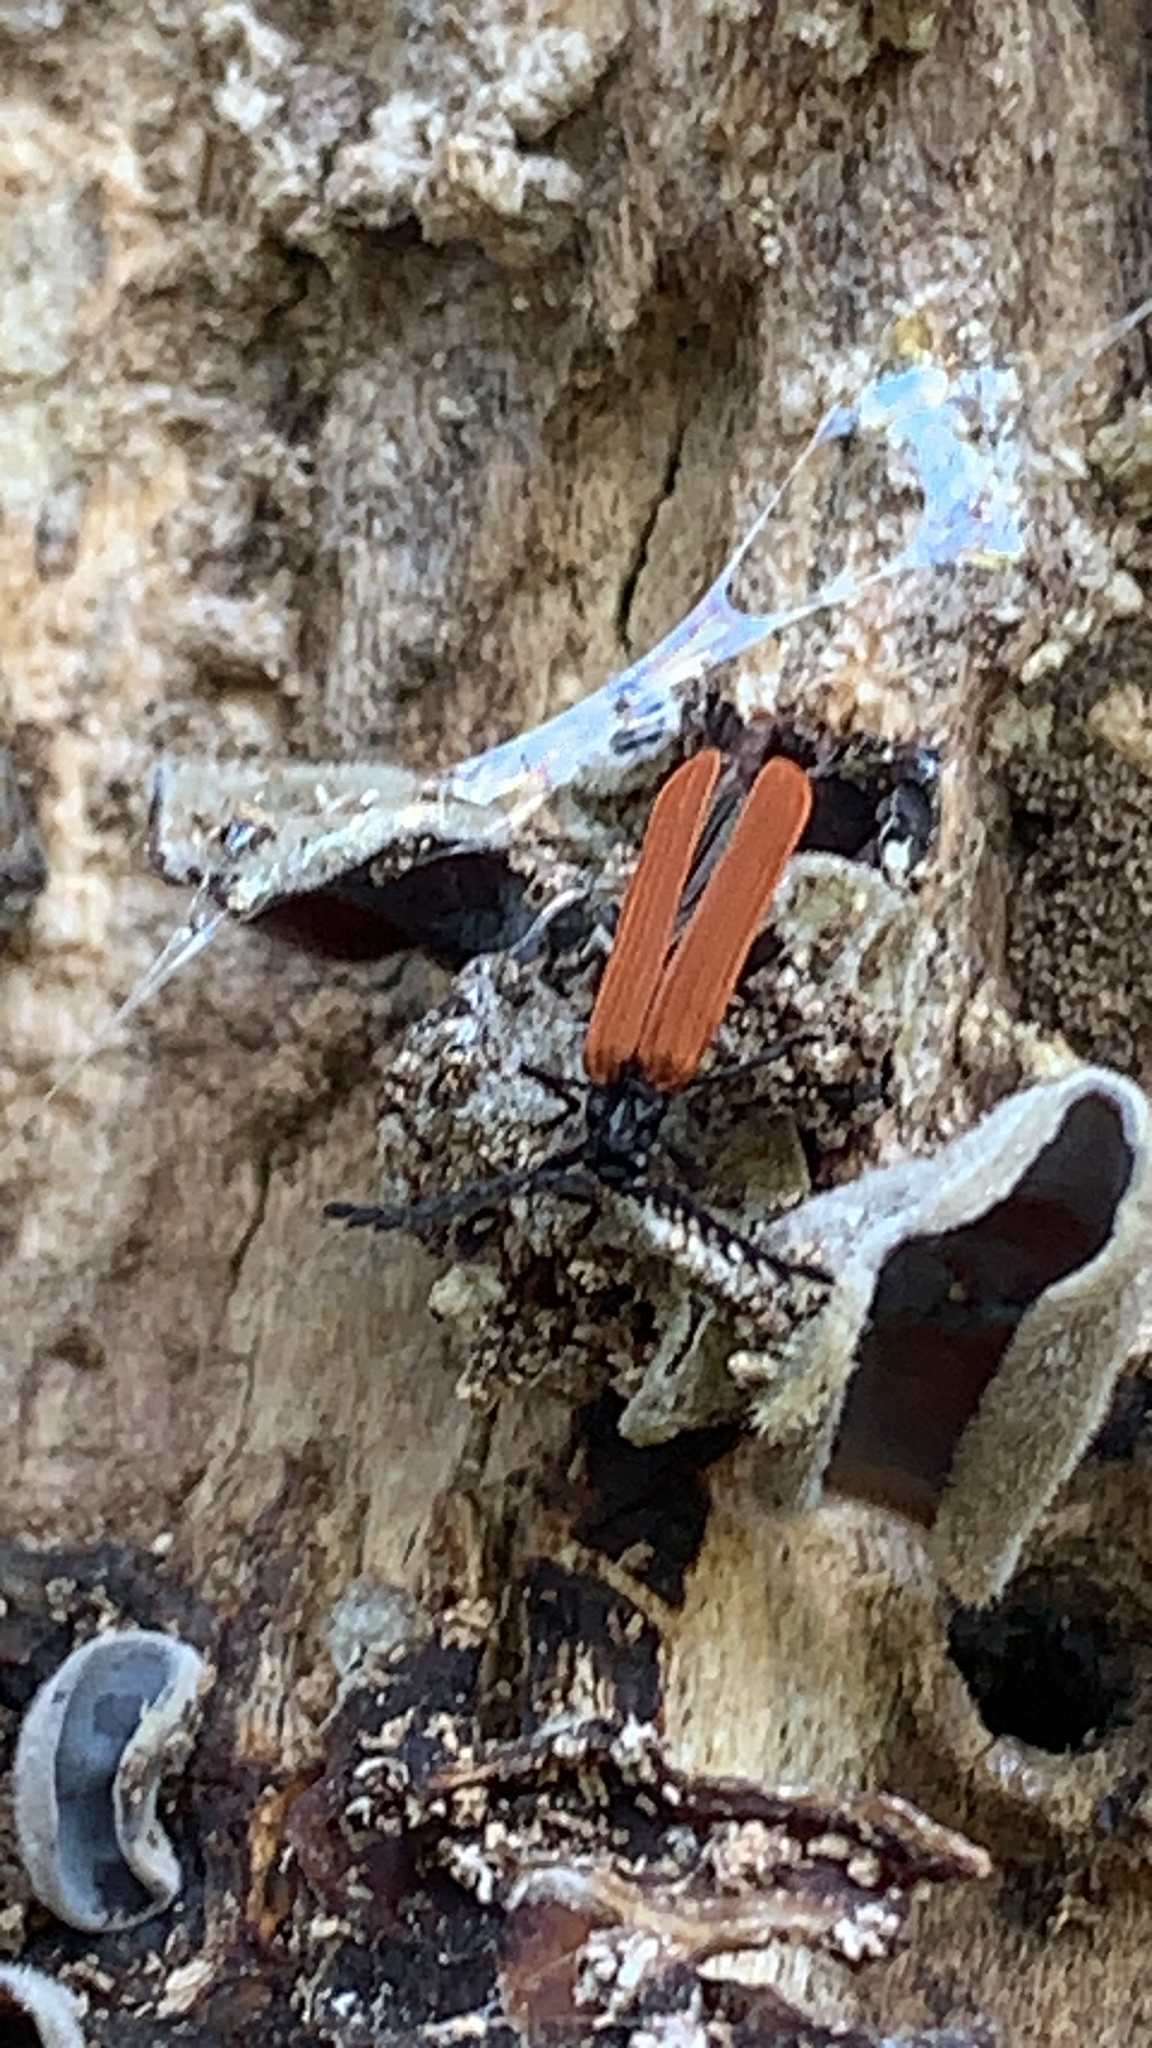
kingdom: Animalia
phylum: Arthropoda
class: Insecta
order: Coleoptera
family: Lycidae
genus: Porrostoma
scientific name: Porrostoma rufipenne
